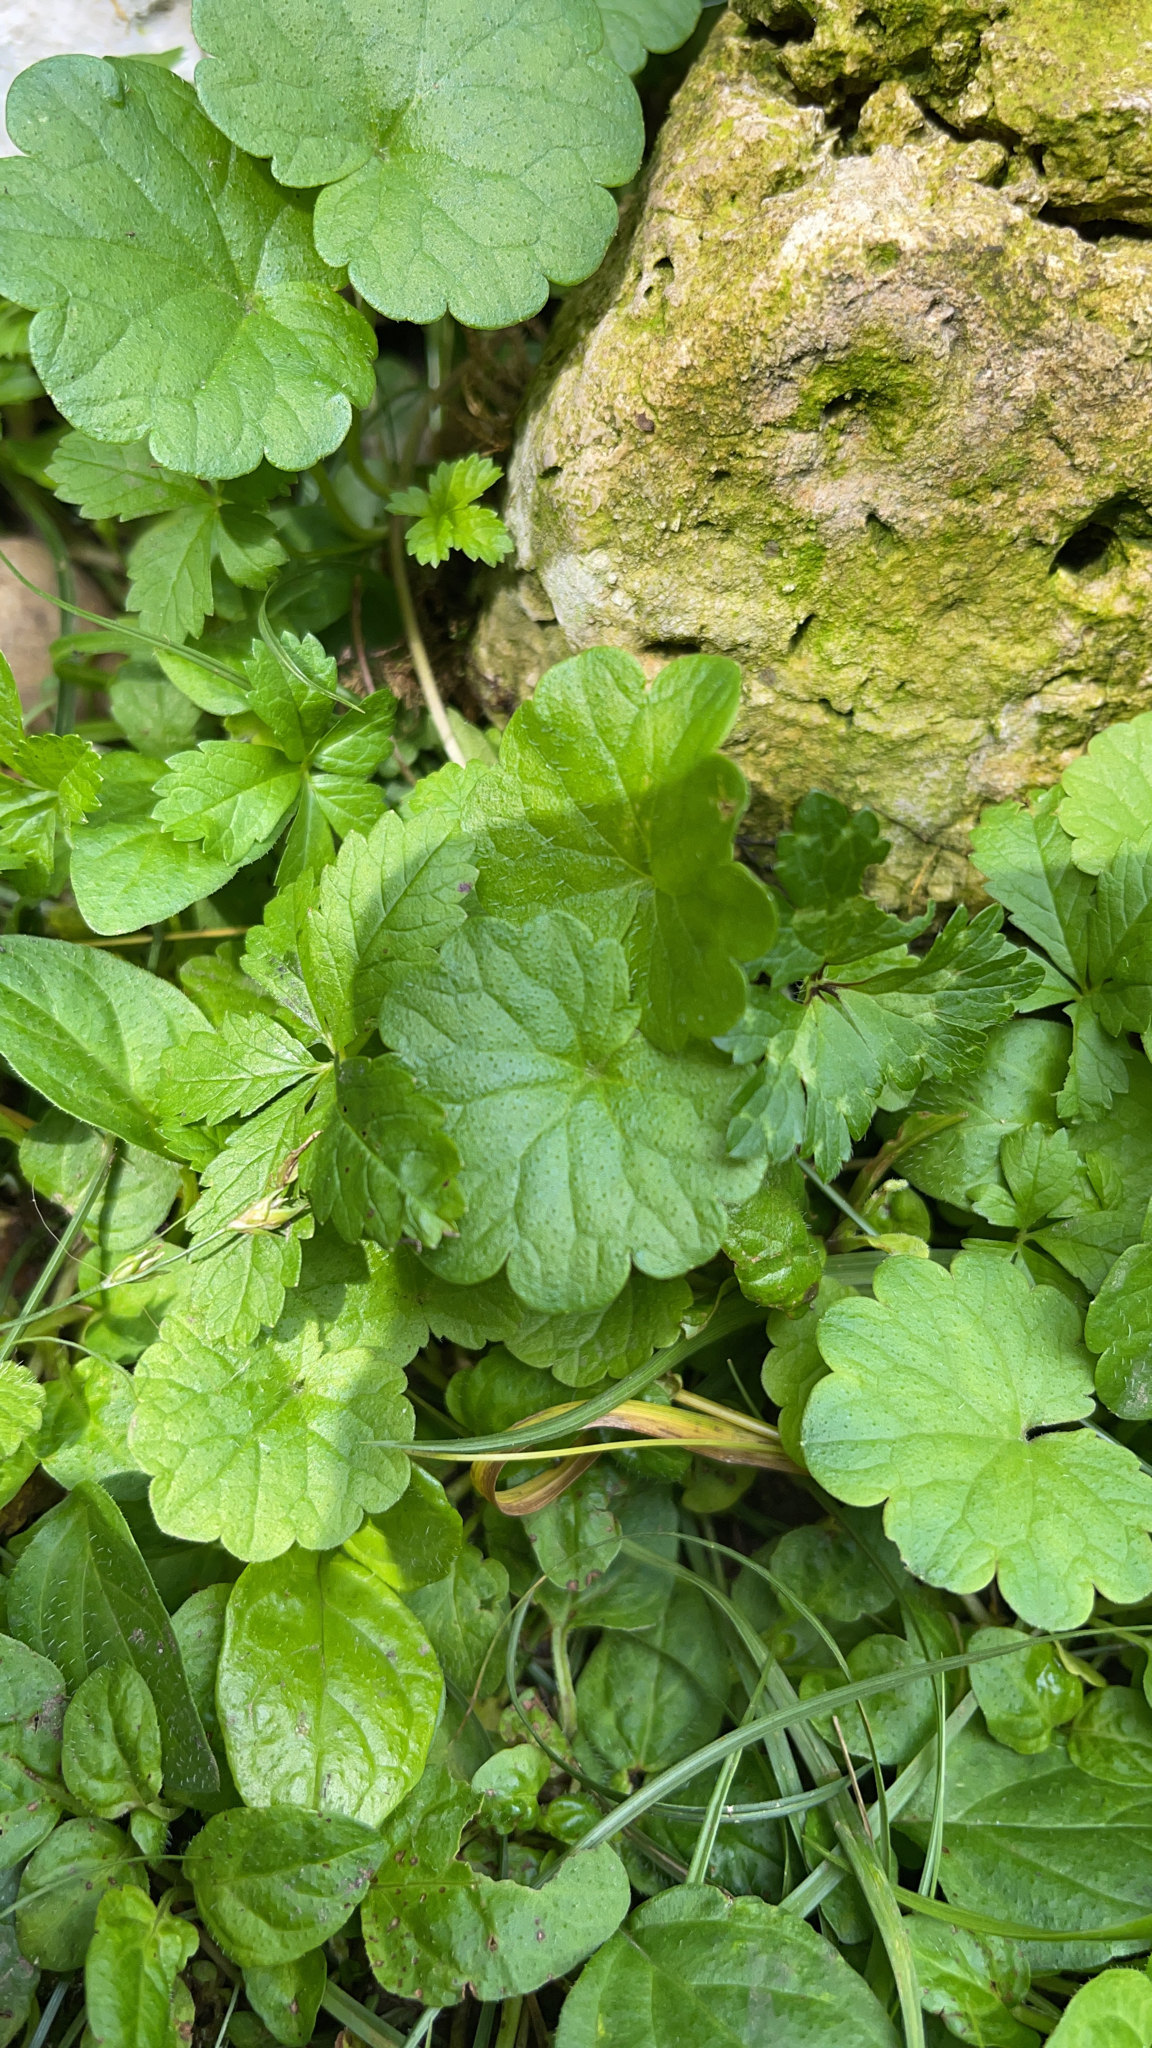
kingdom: Plantae
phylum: Tracheophyta
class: Magnoliopsida
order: Lamiales
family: Lamiaceae
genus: Glechoma
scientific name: Glechoma hederacea
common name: Ground ivy
